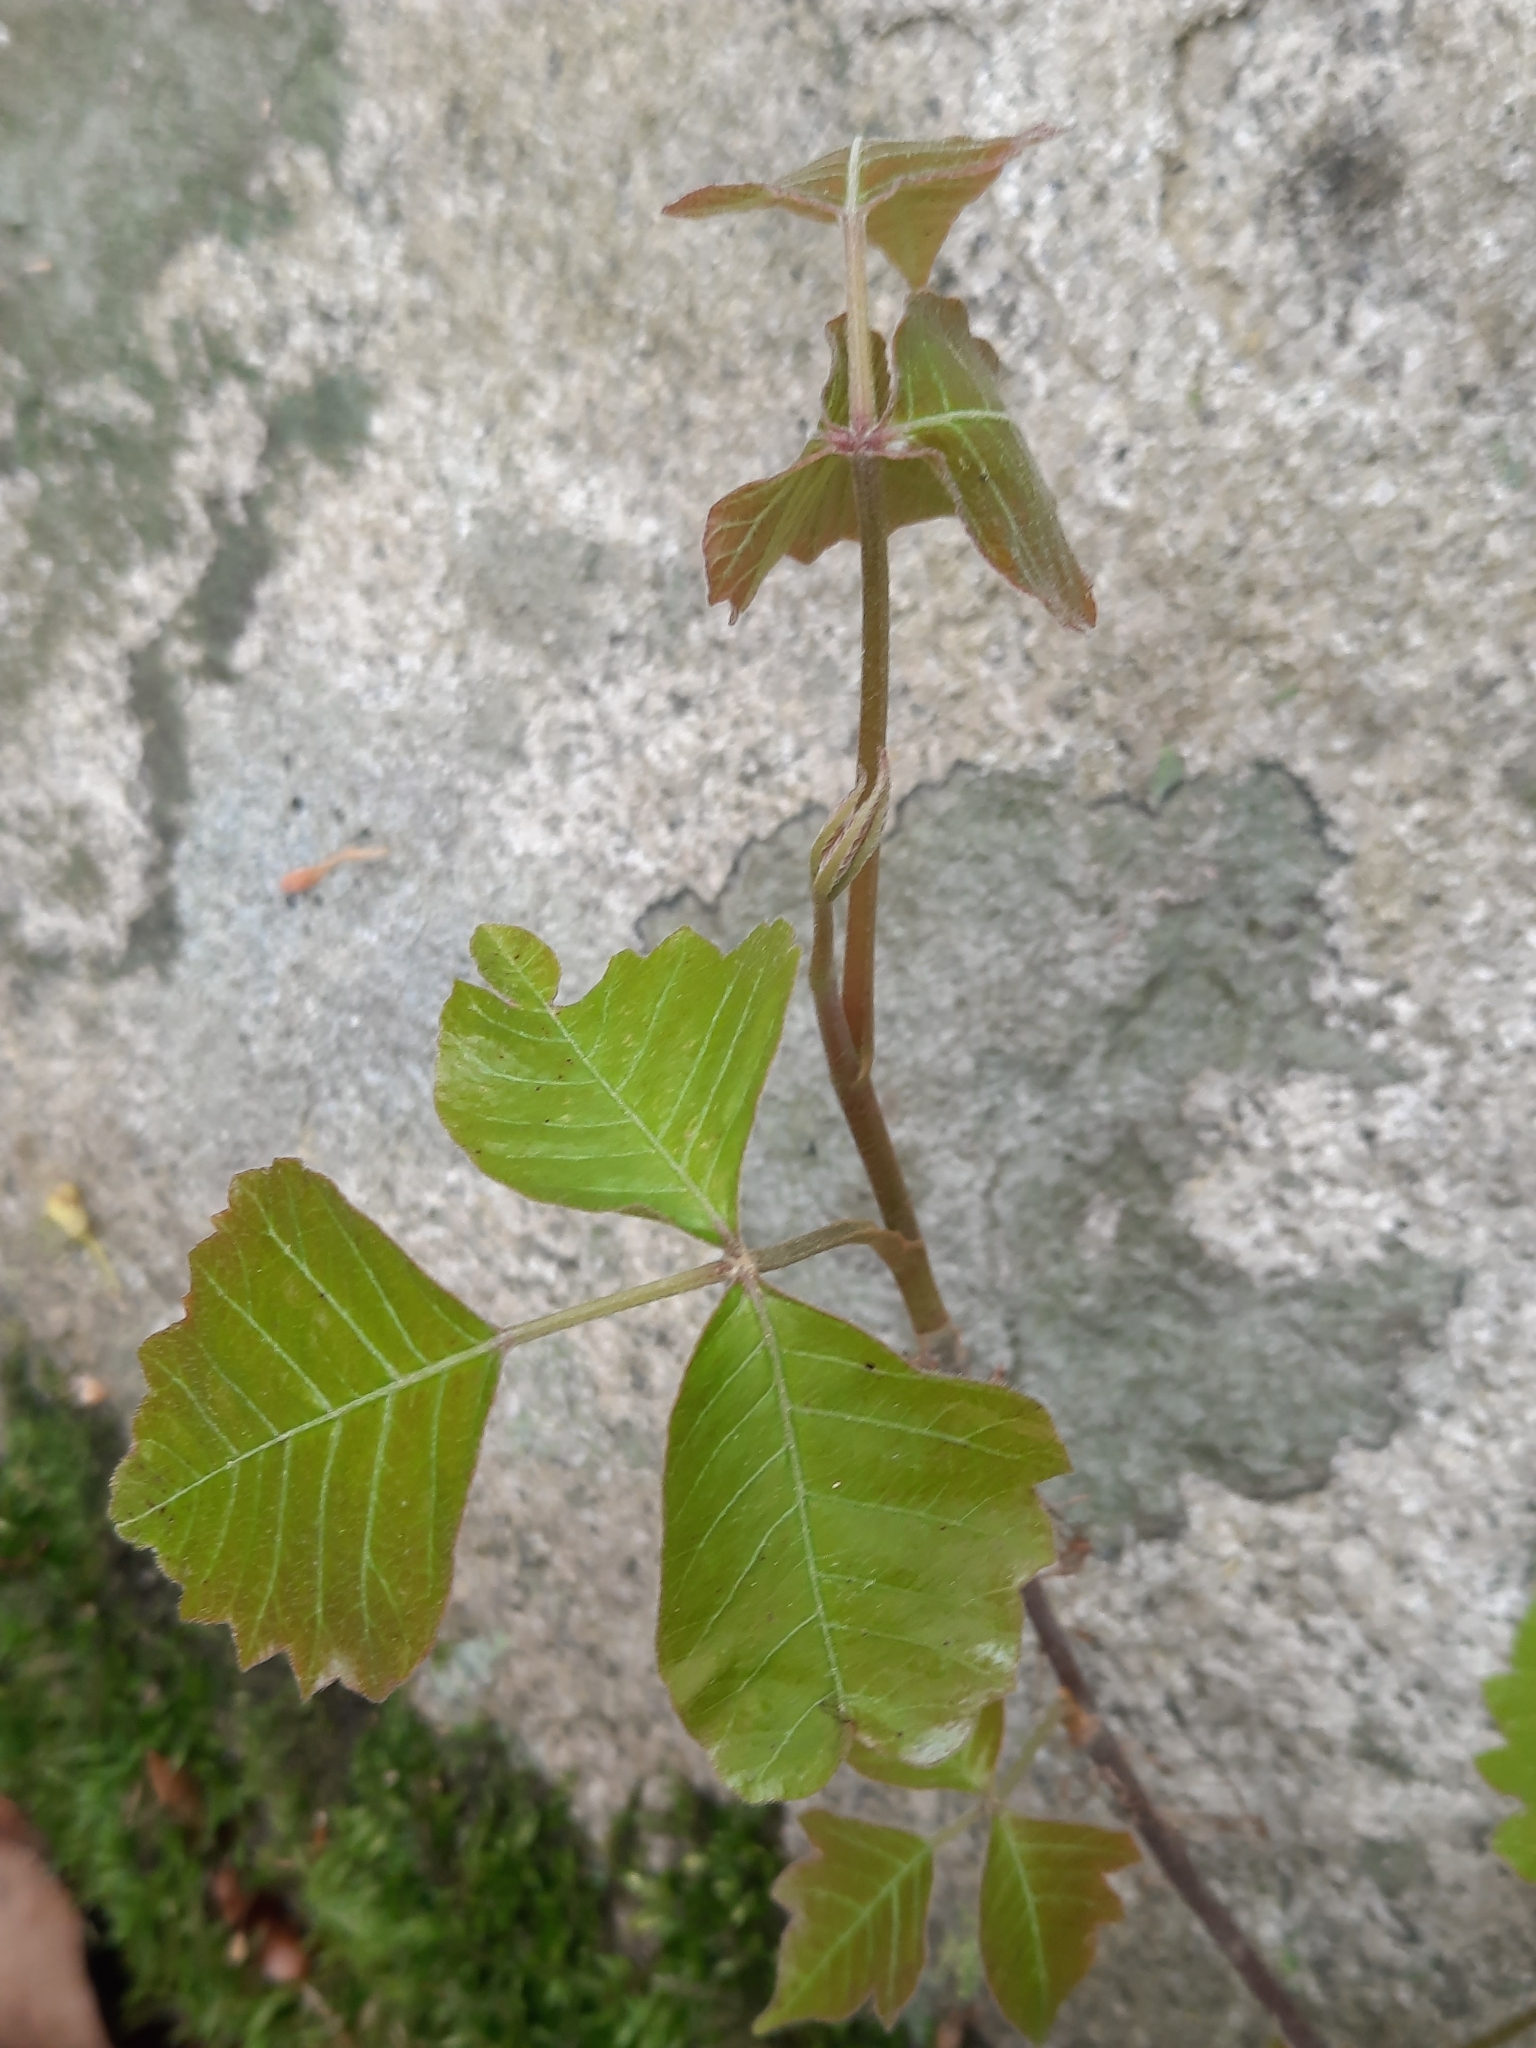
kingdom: Plantae
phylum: Tracheophyta
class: Magnoliopsida
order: Sapindales
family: Anacardiaceae
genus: Toxicodendron
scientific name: Toxicodendron radicans
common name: Poison ivy
